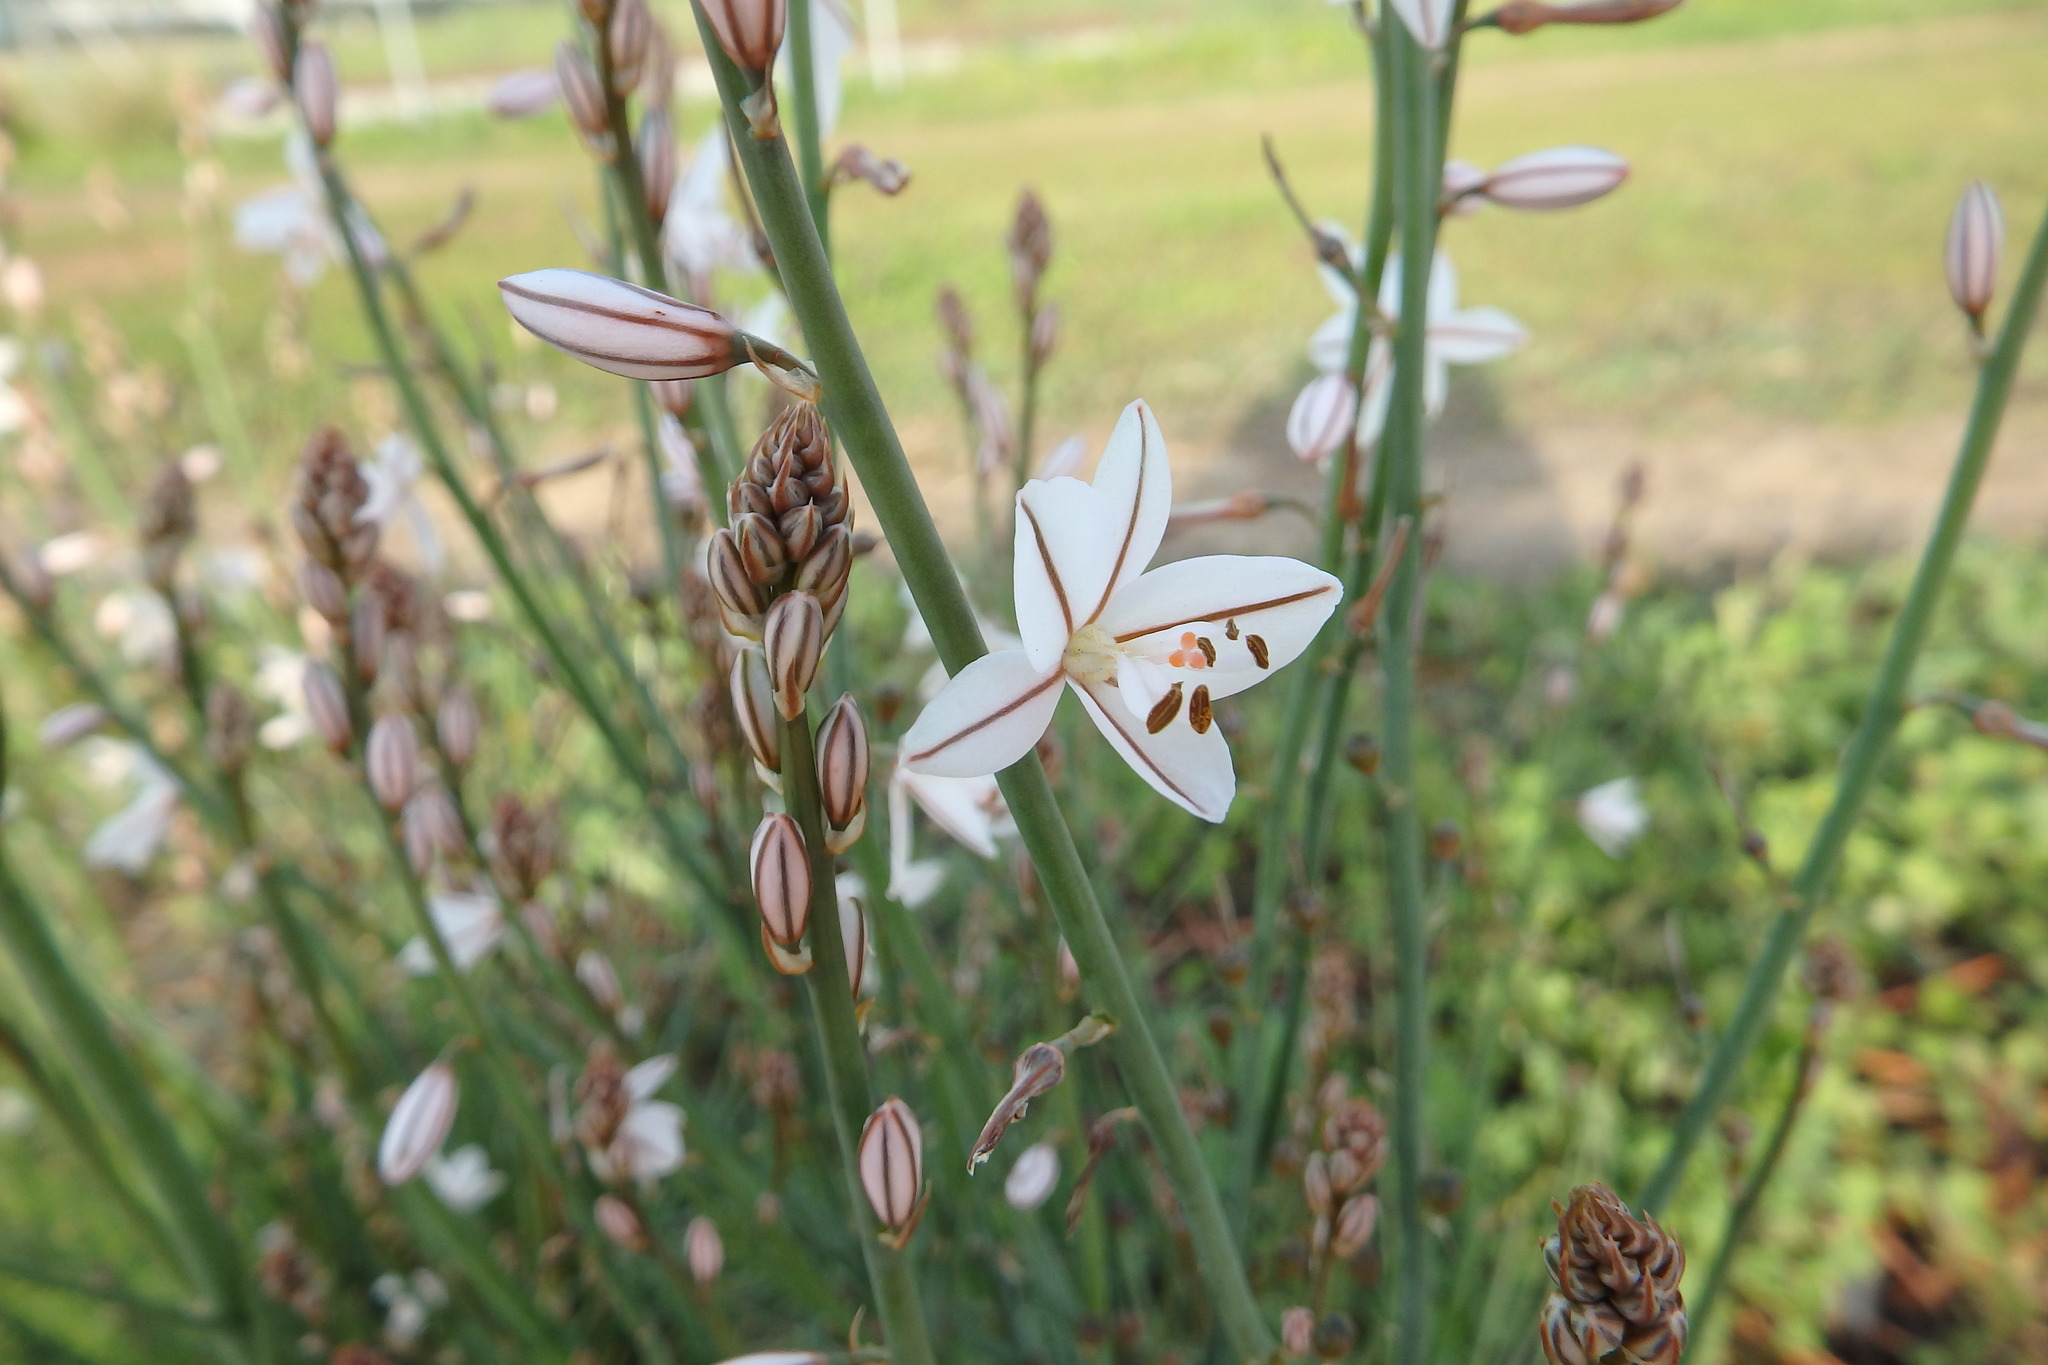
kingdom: Plantae
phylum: Tracheophyta
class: Liliopsida
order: Asparagales
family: Asphodelaceae
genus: Asphodelus
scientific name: Asphodelus fistulosus
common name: Onionweed
